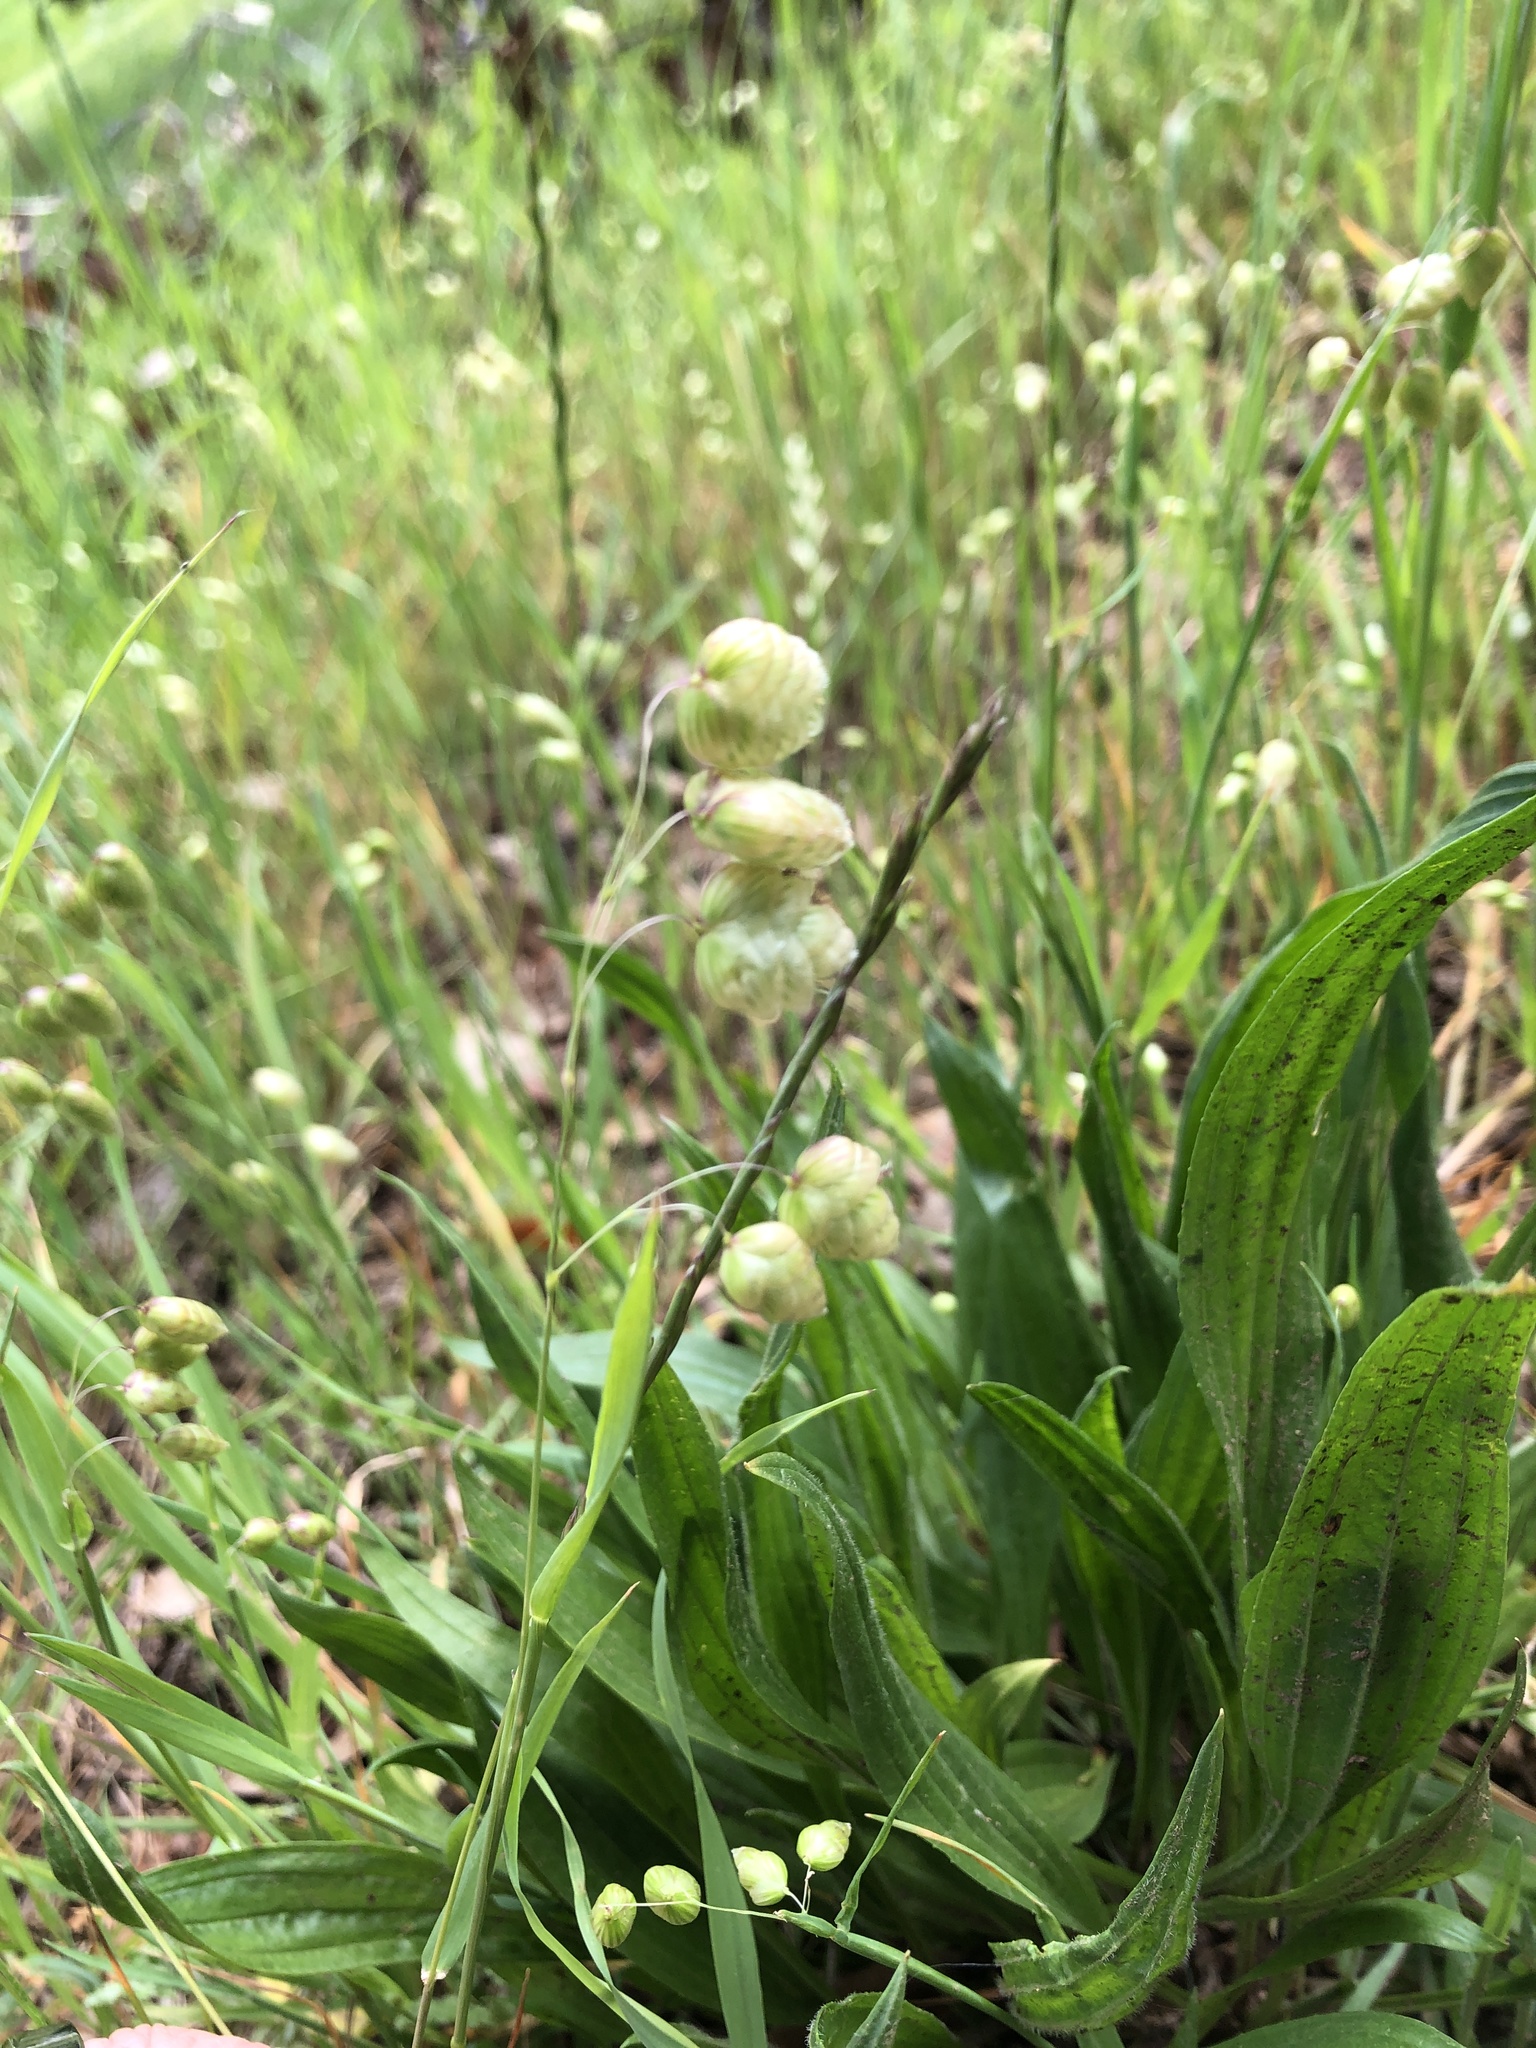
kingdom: Plantae
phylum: Tracheophyta
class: Liliopsida
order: Poales
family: Poaceae
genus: Briza
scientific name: Briza maxima
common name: Big quakinggrass
